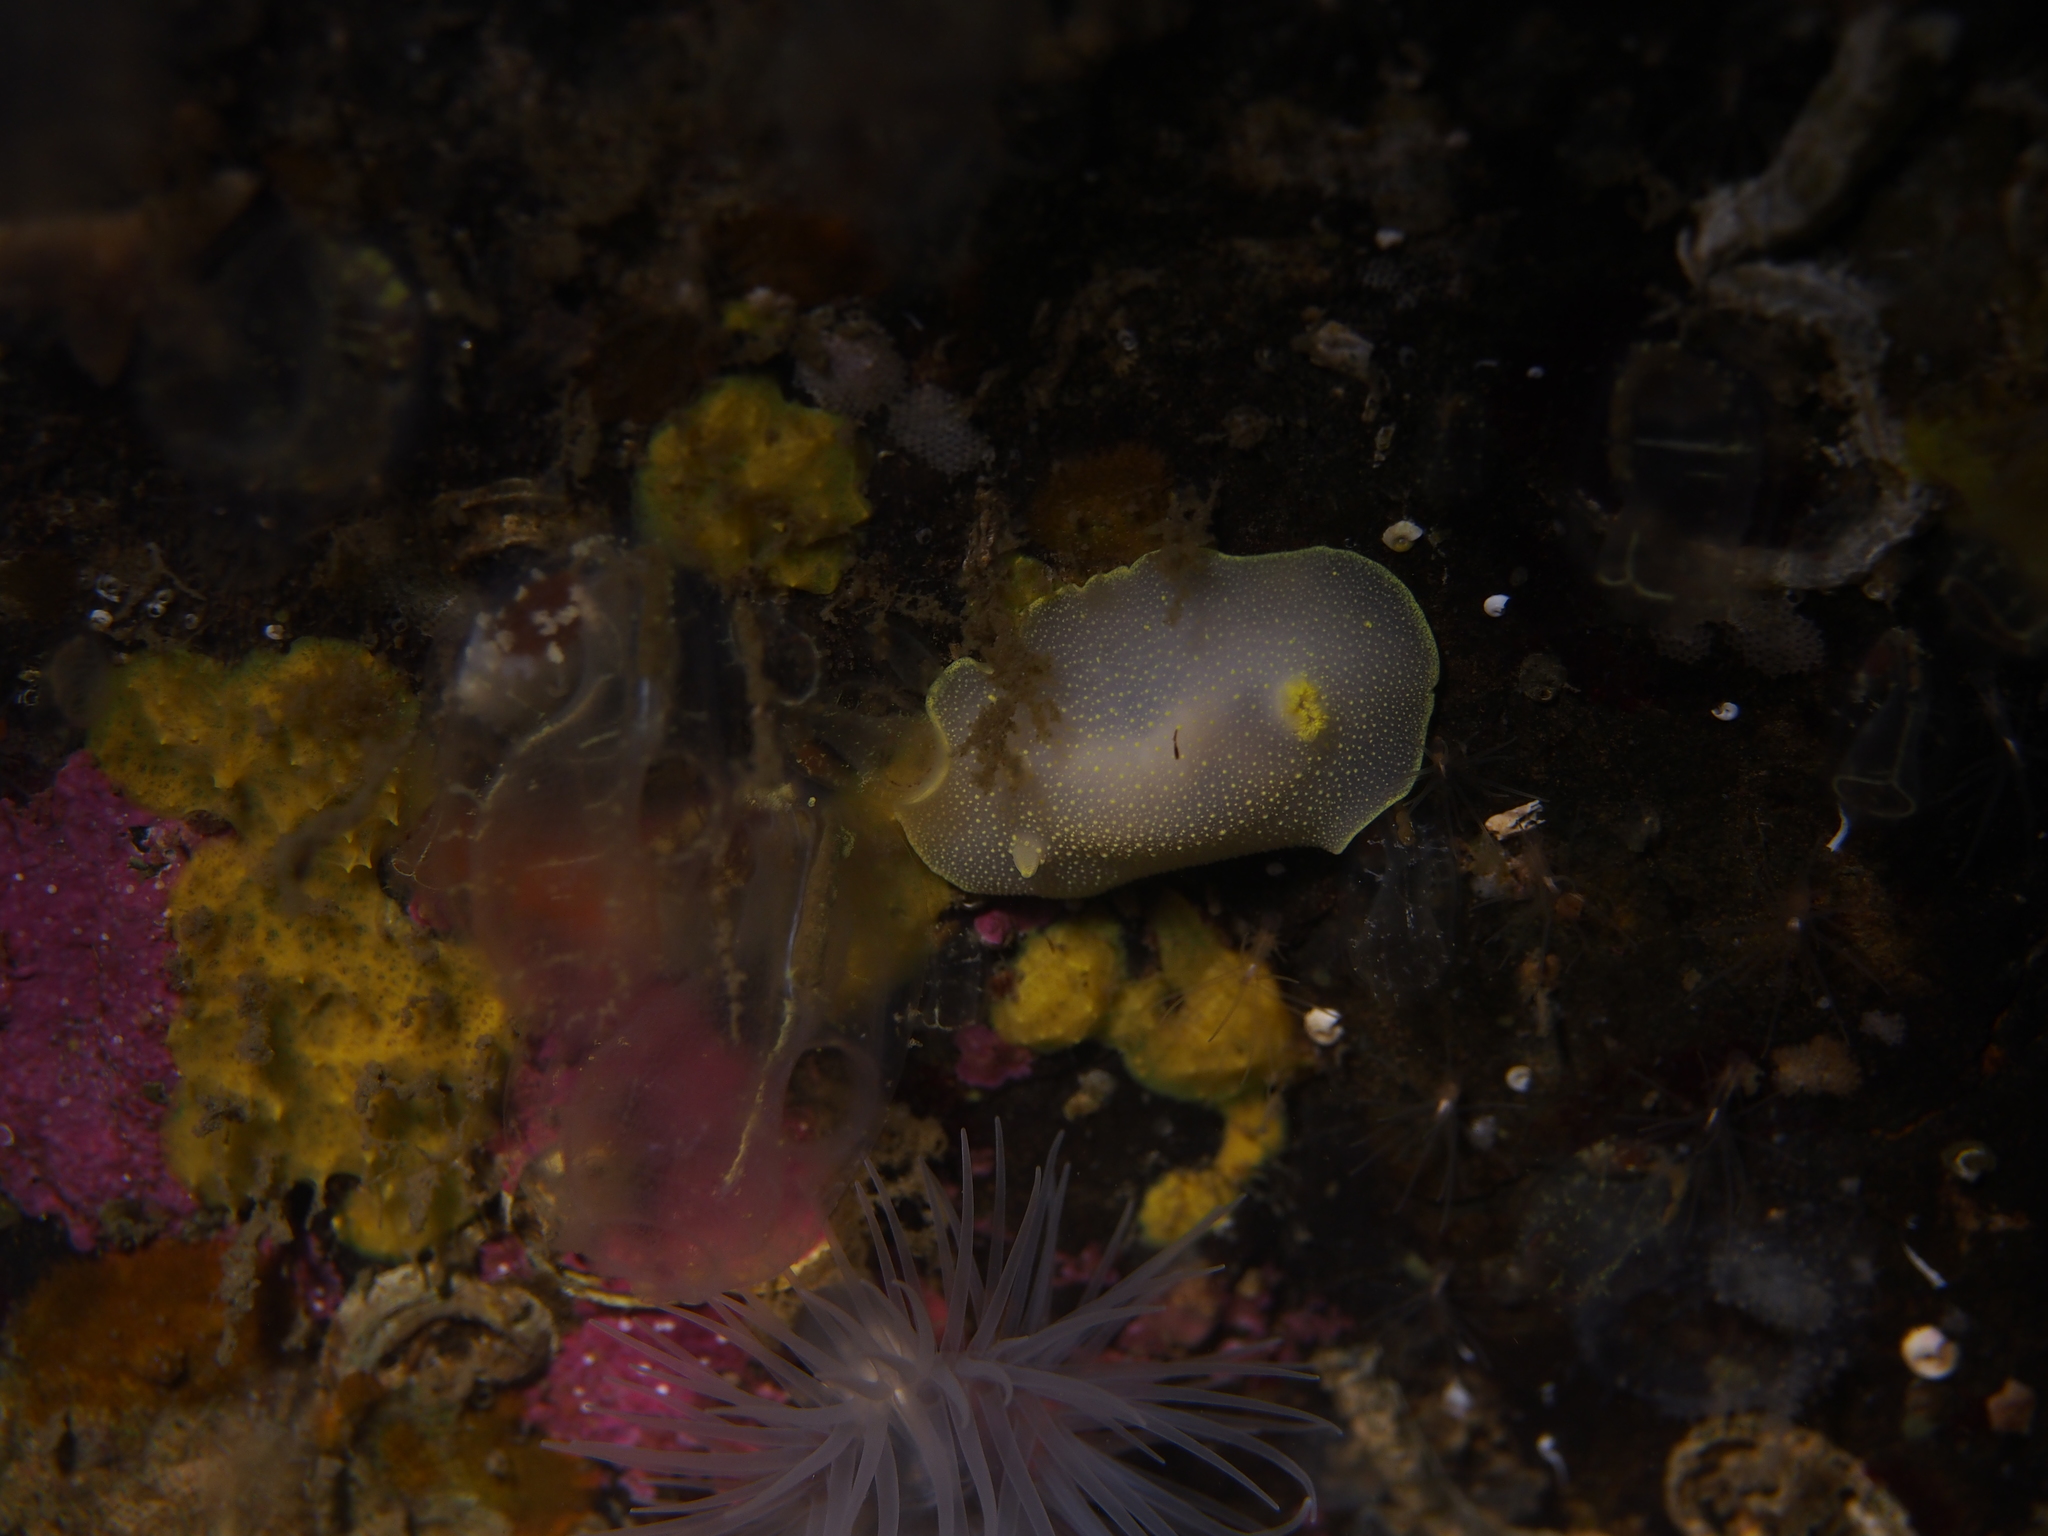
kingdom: Animalia
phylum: Mollusca
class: Gastropoda
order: Nudibranchia
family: Cadlinidae
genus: Cadlina
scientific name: Cadlina laevis
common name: White atlantic cadlina
